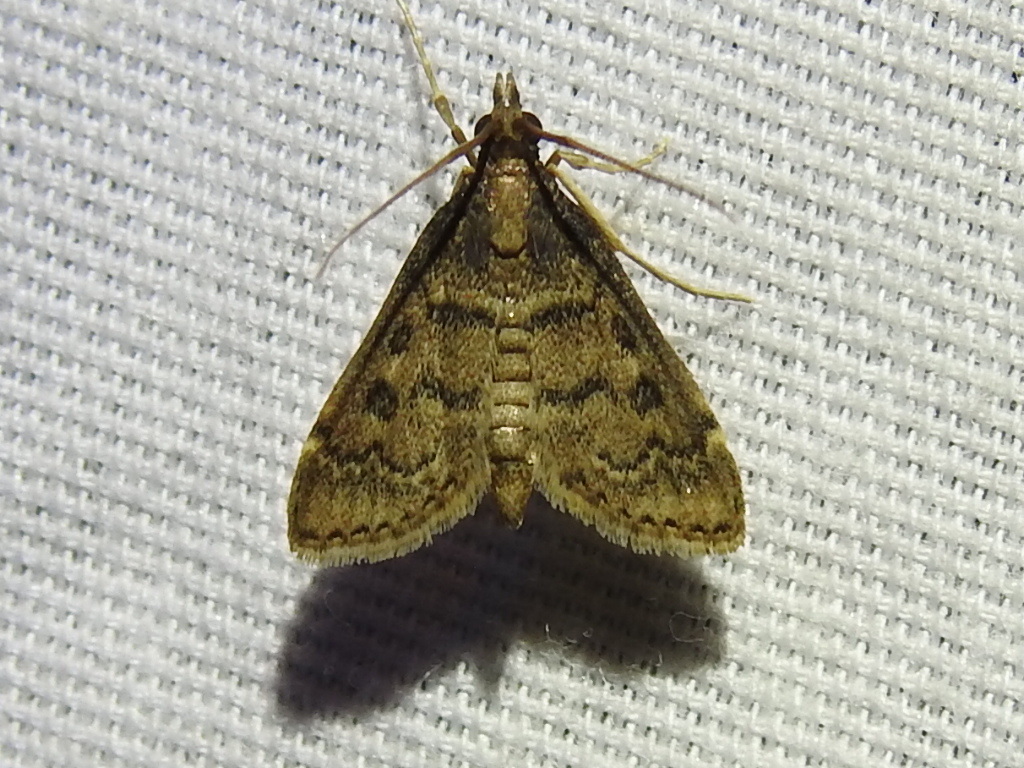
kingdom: Animalia
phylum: Arthropoda
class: Insecta
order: Lepidoptera
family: Crambidae
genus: Steniodes
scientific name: Steniodes declivalis
